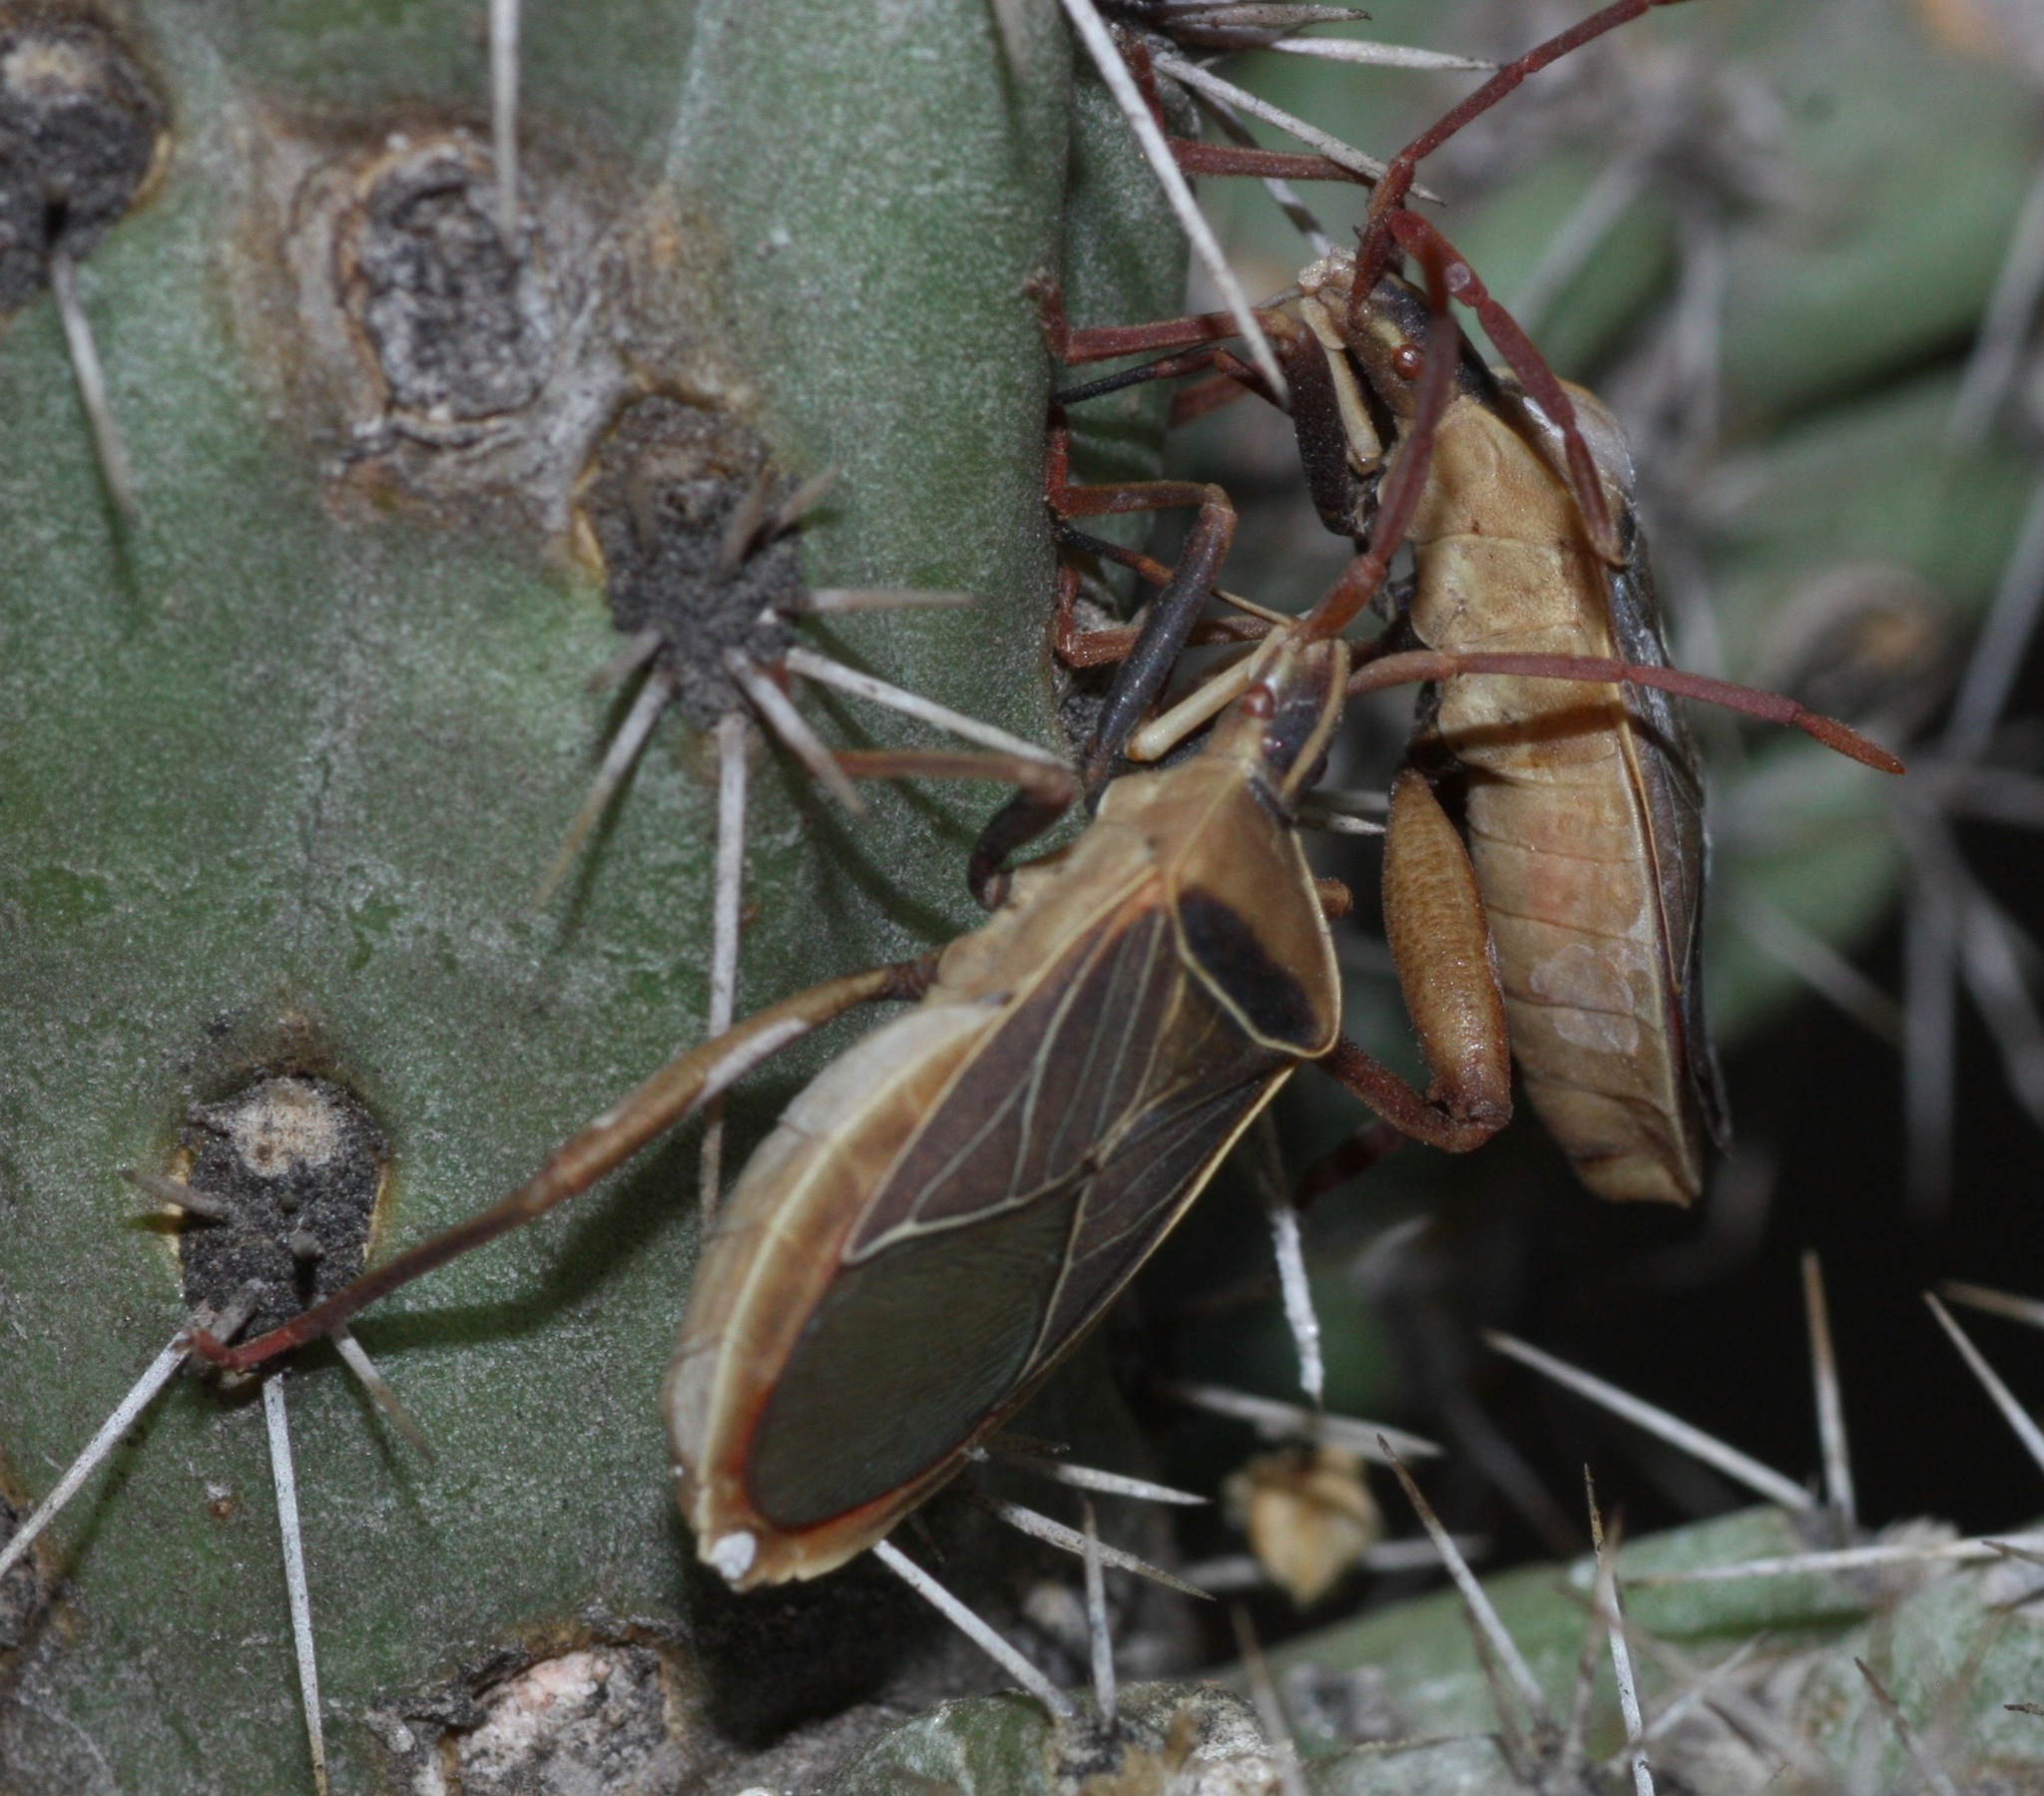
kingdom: Animalia
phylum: Arthropoda
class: Insecta
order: Hemiptera
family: Coreidae
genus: Chelinidea
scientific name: Chelinidea vittiger
